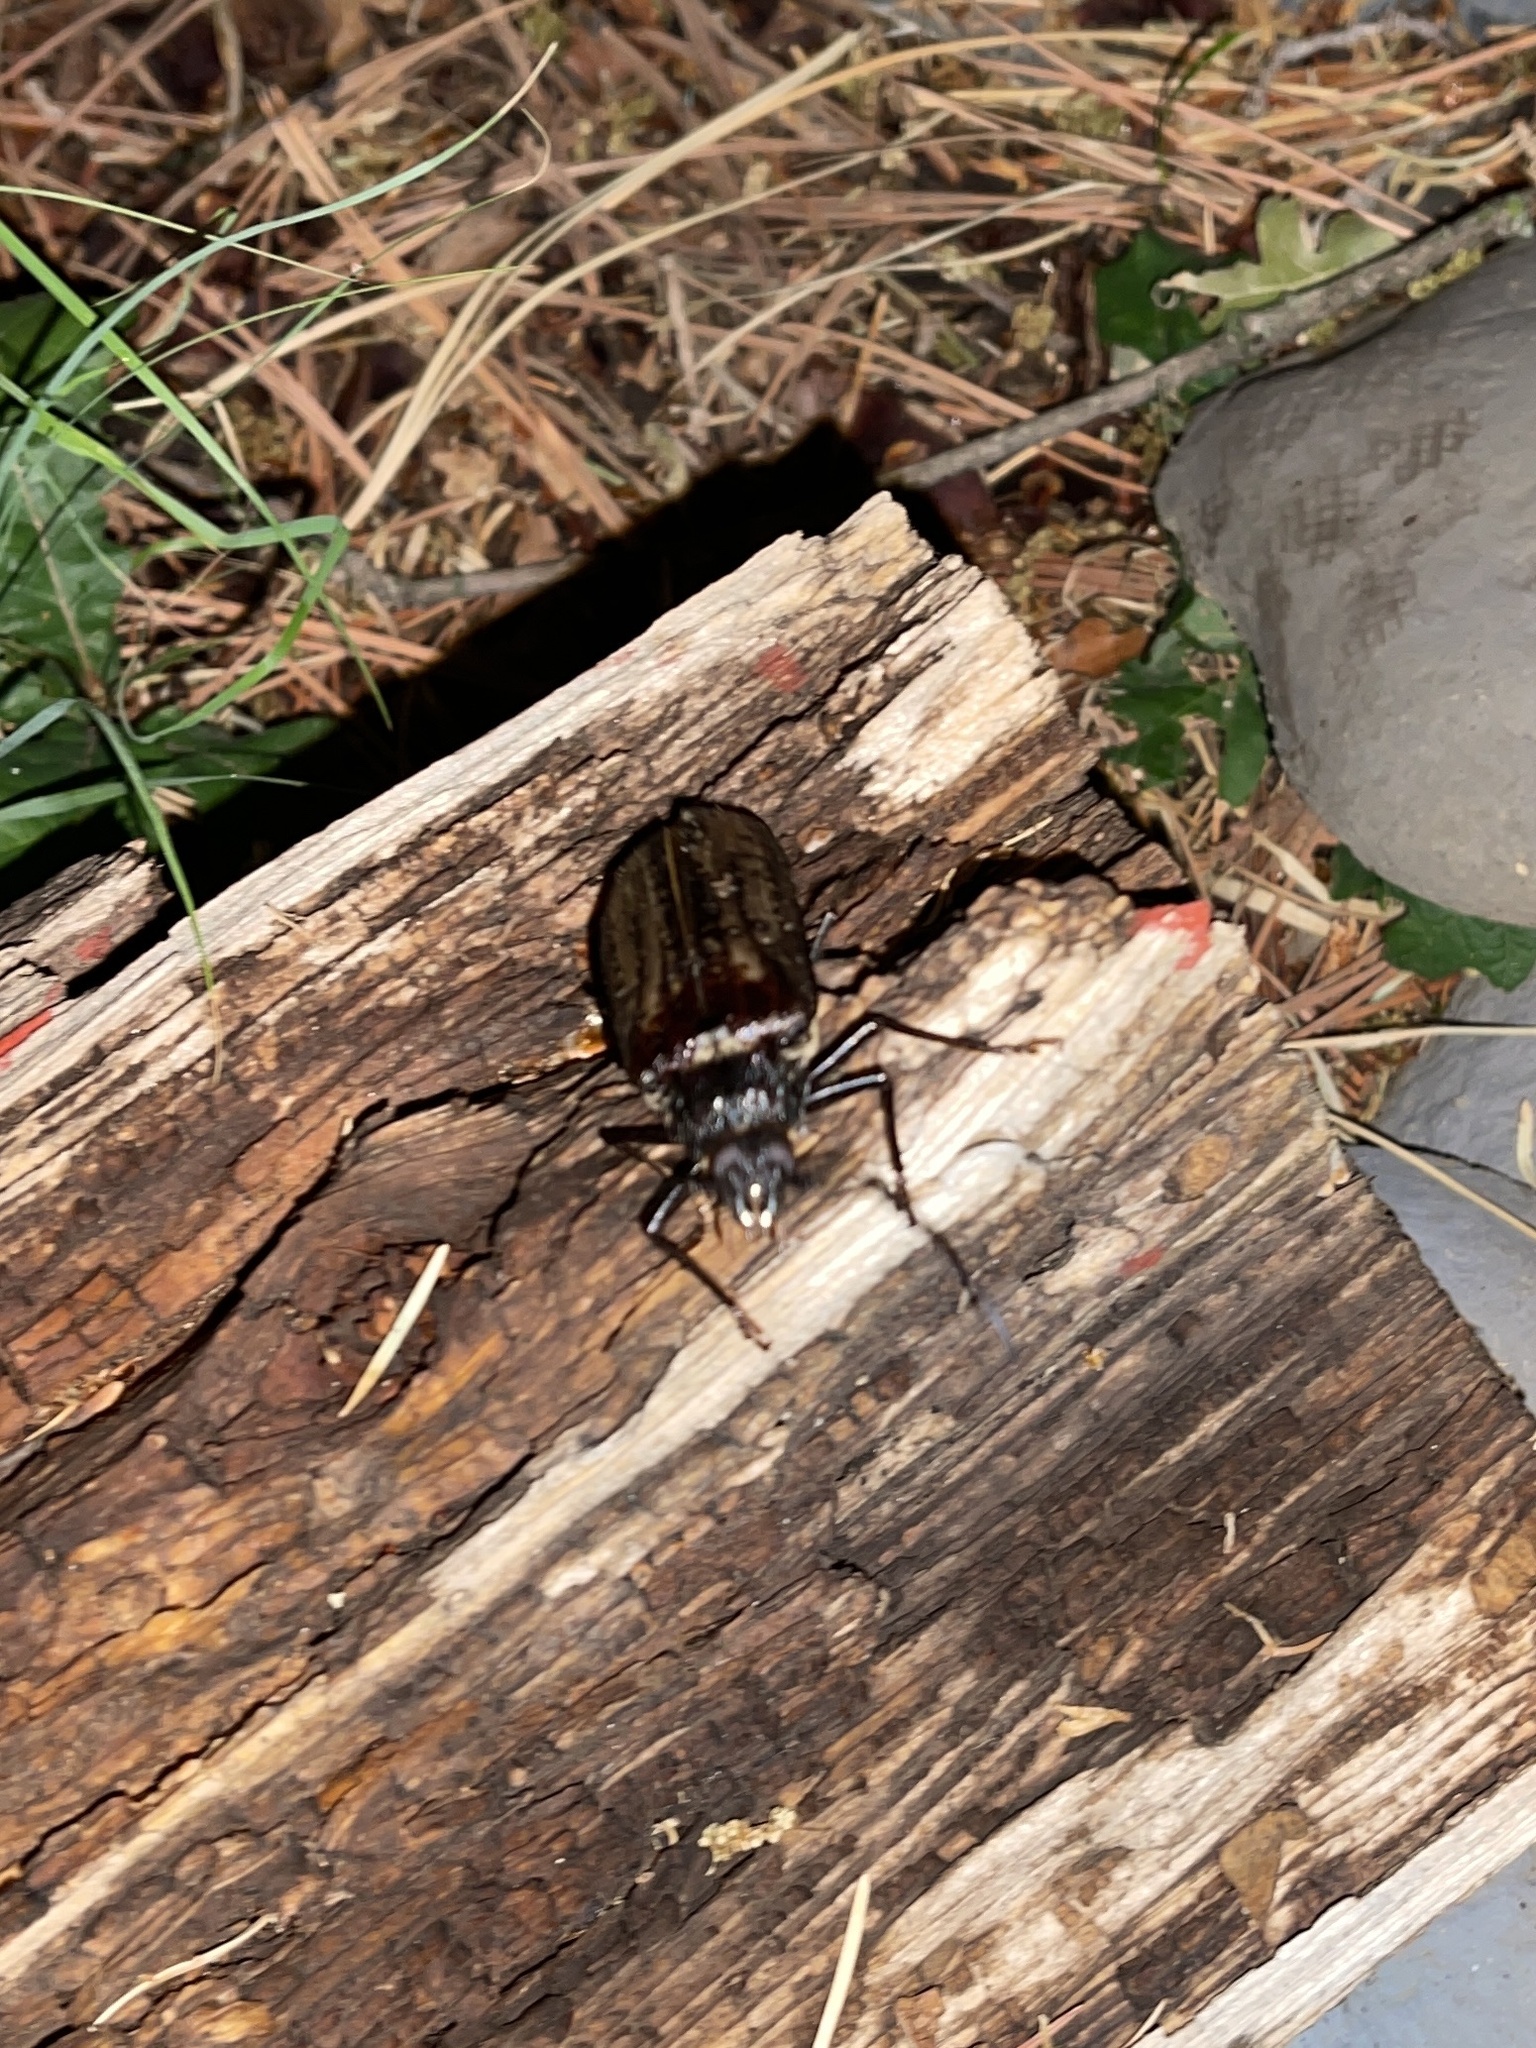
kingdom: Animalia
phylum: Arthropoda
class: Insecta
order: Coleoptera
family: Cerambycidae
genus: Trichocnemis
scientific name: Trichocnemis spiculatus
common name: Long-horned beetle
